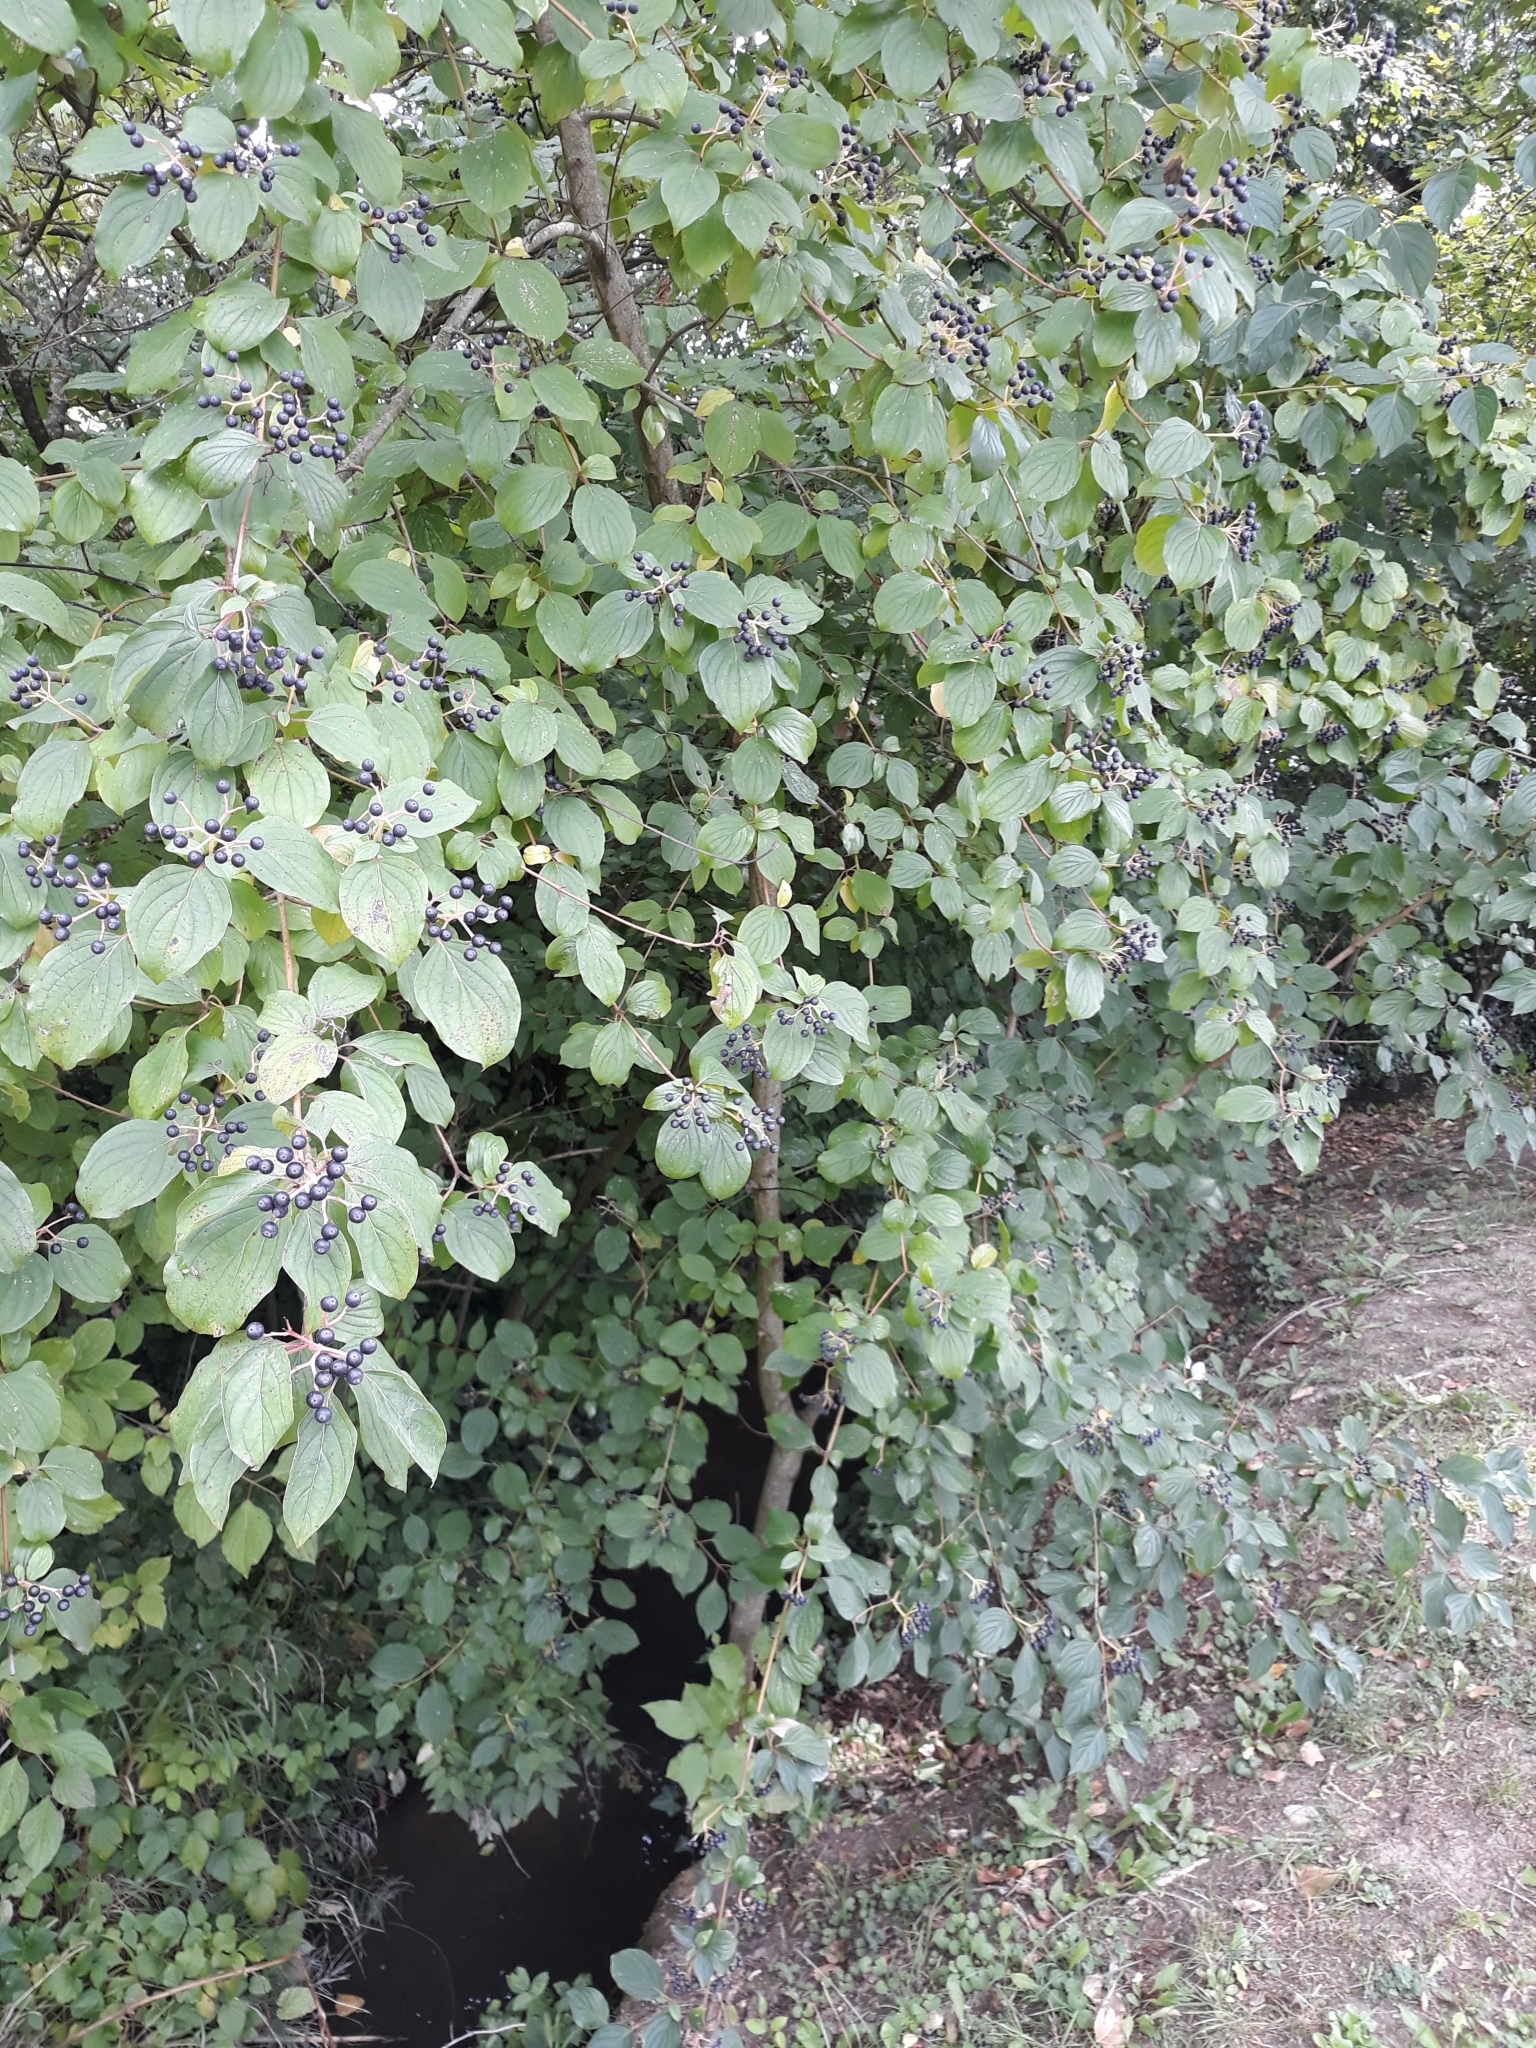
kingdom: Plantae
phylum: Tracheophyta
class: Magnoliopsida
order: Cornales
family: Cornaceae
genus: Cornus
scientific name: Cornus sanguinea
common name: Dogwood
